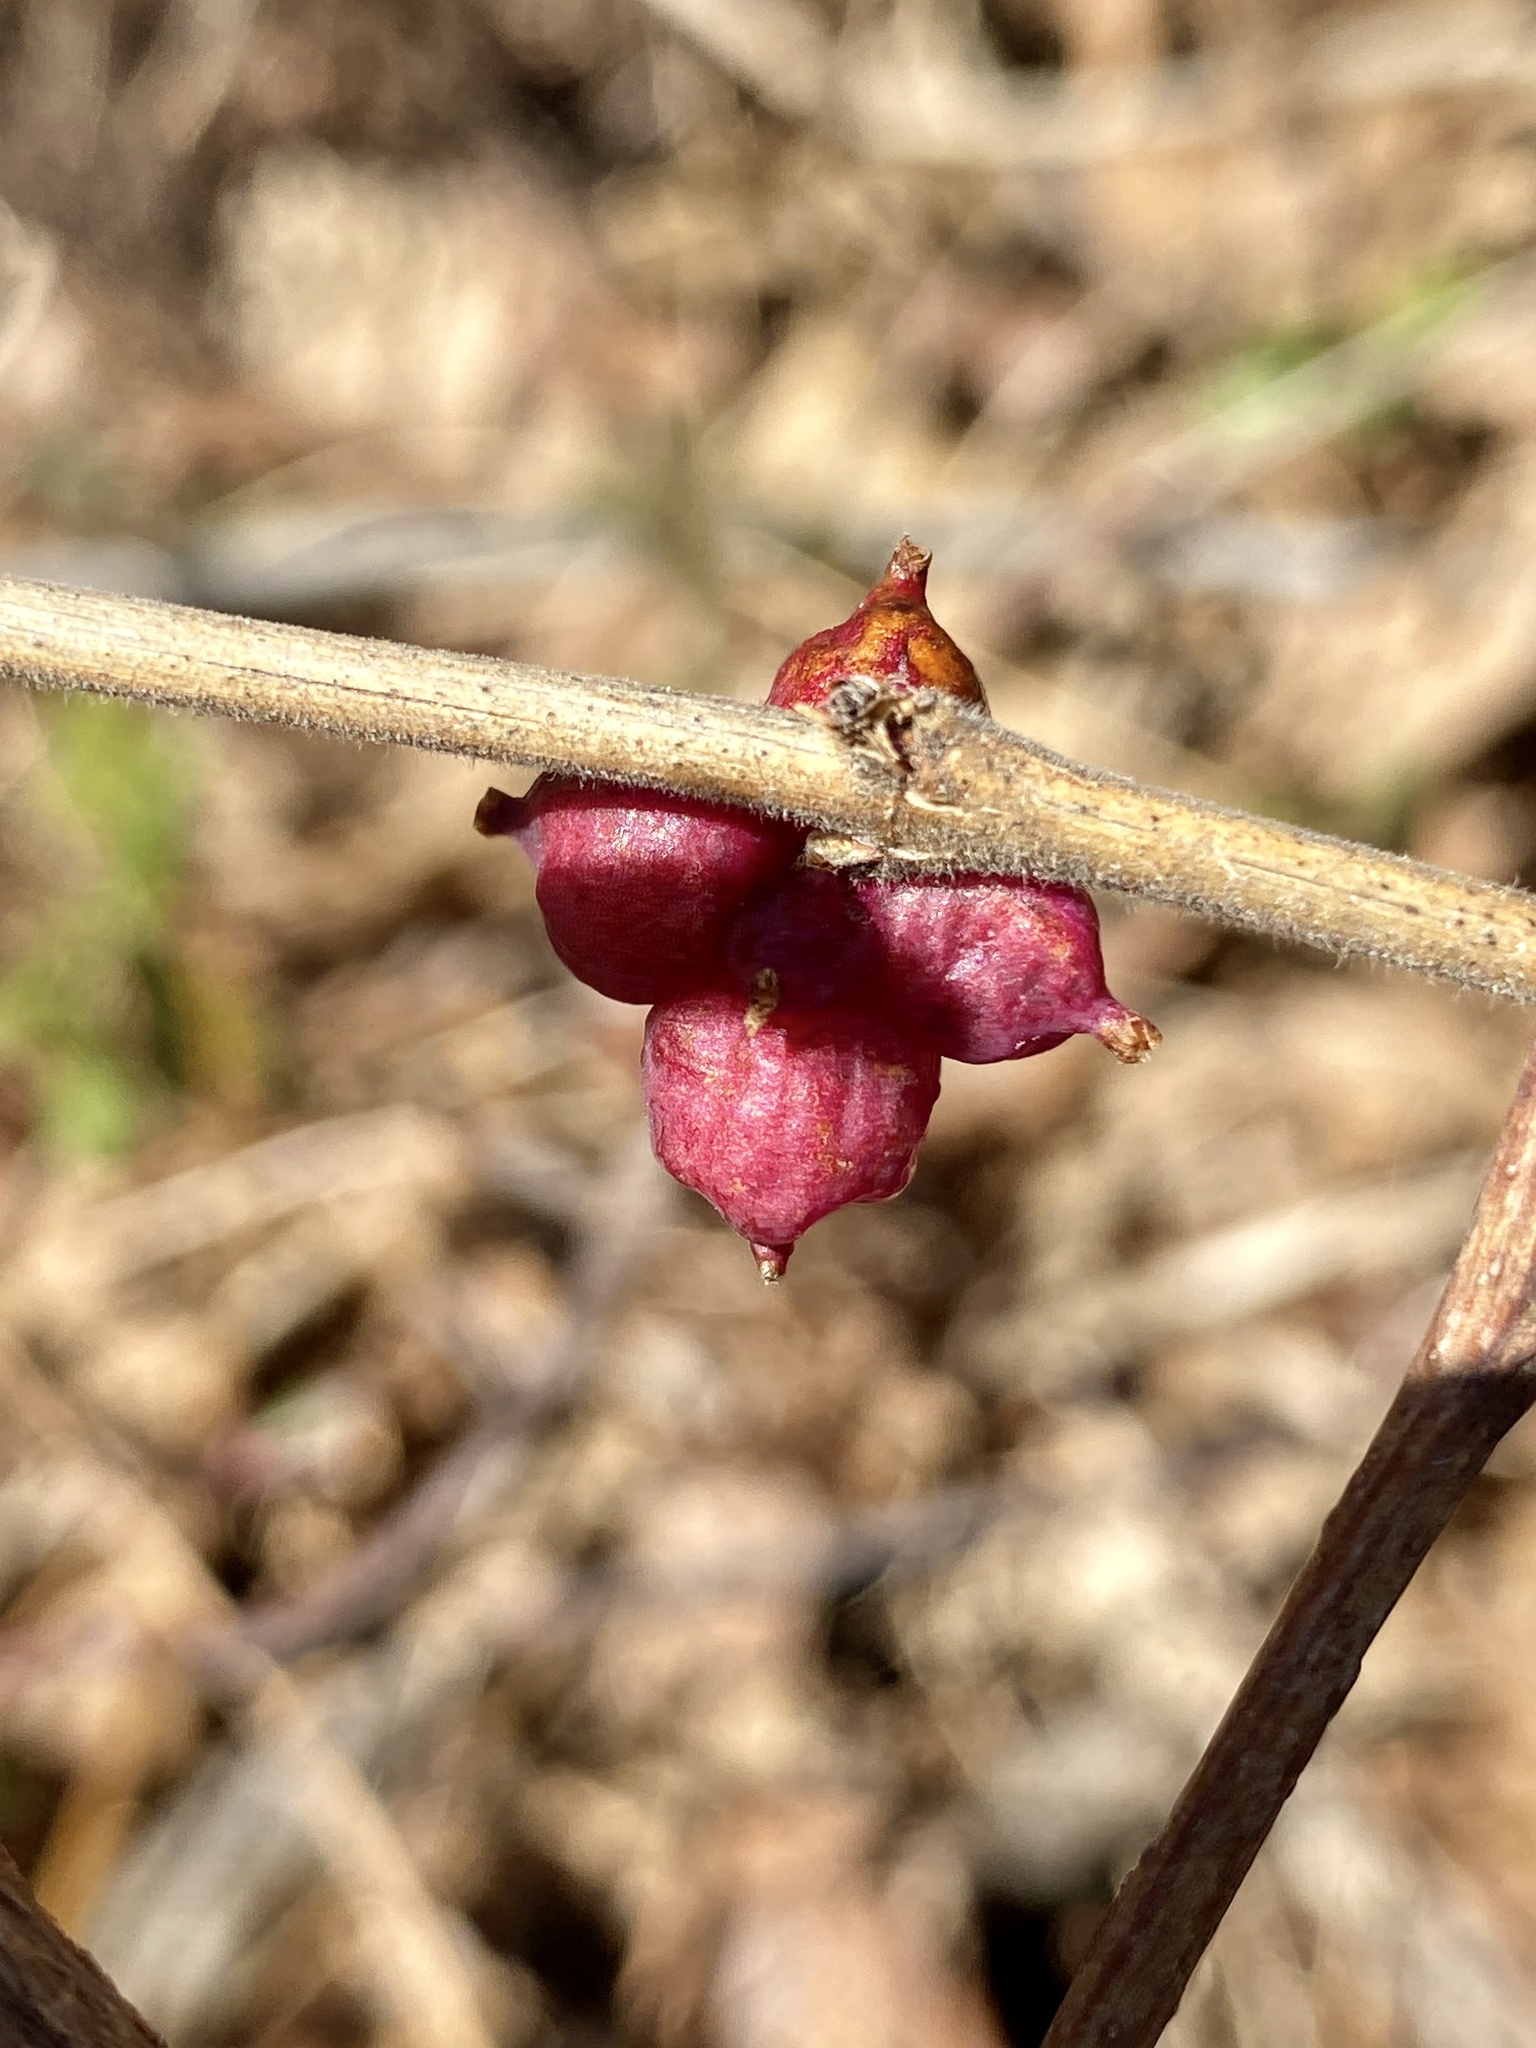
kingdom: Plantae
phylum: Tracheophyta
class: Magnoliopsida
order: Dipsacales
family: Caprifoliaceae
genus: Symphoricarpos
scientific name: Symphoricarpos orbiculatus
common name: Coralberry
